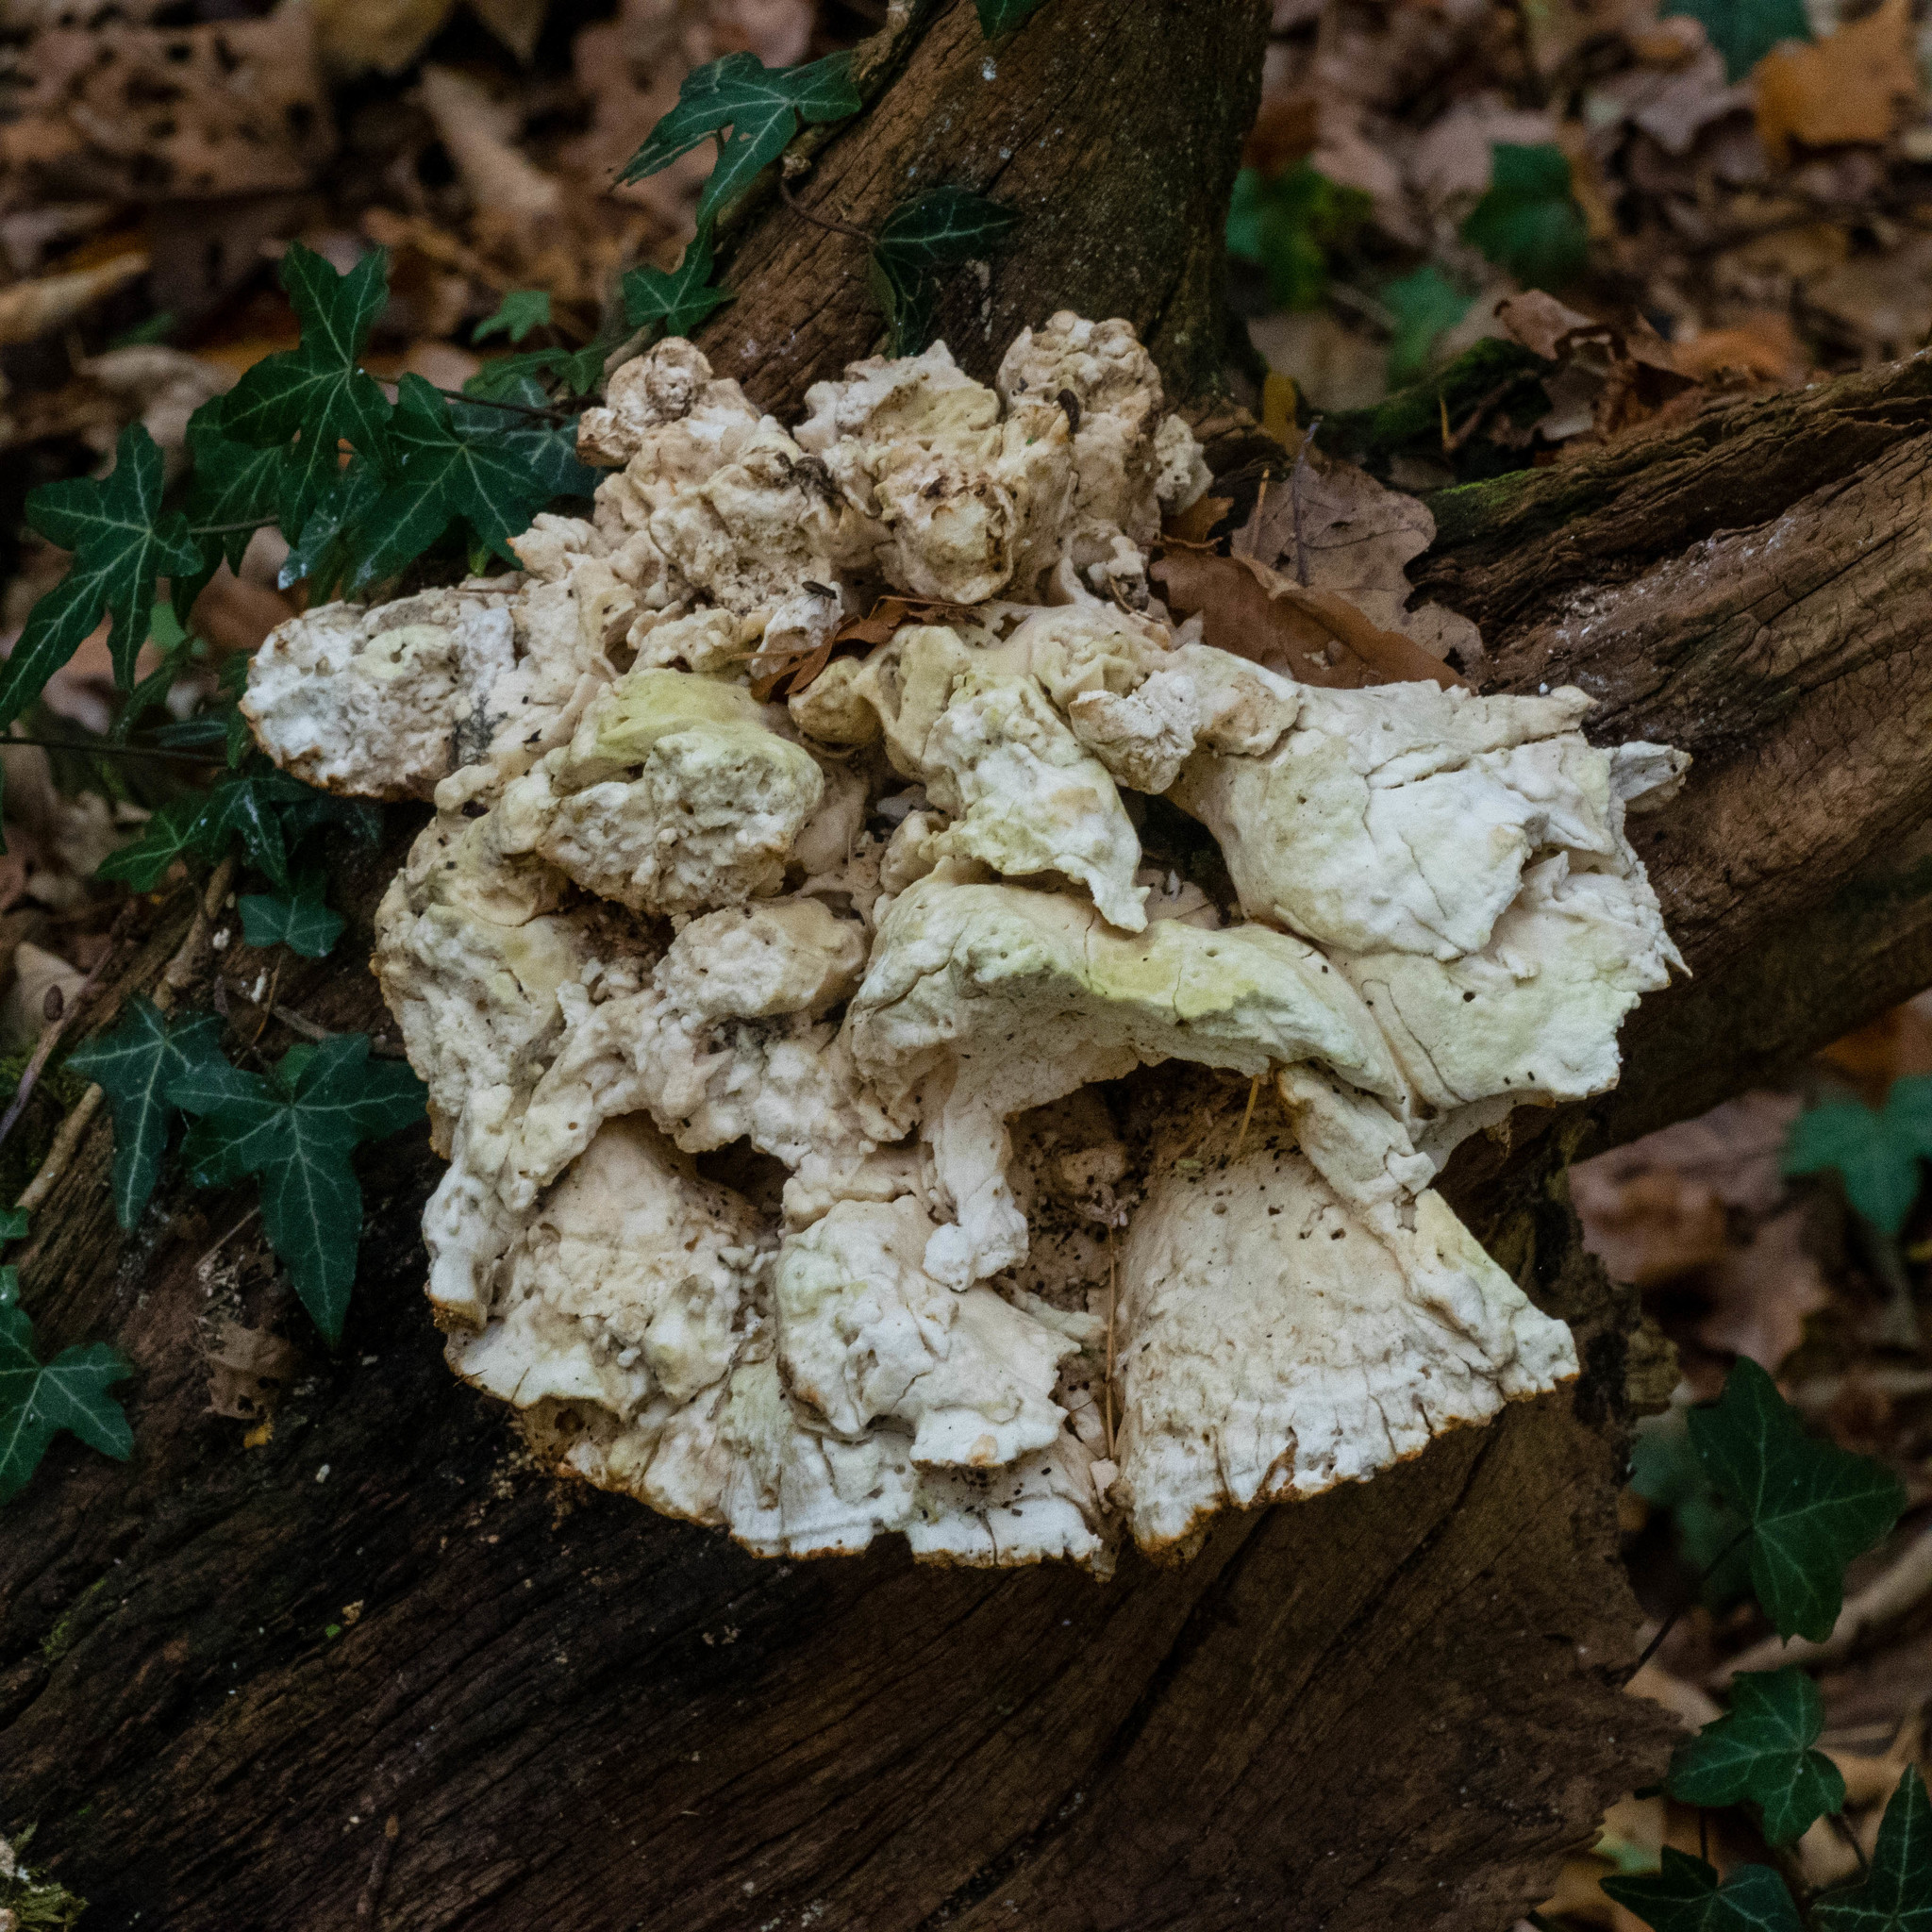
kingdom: Fungi
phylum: Basidiomycota
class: Agaricomycetes
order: Polyporales
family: Laetiporaceae
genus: Laetiporus
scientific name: Laetiporus sulphureus
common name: Chicken of the woods
